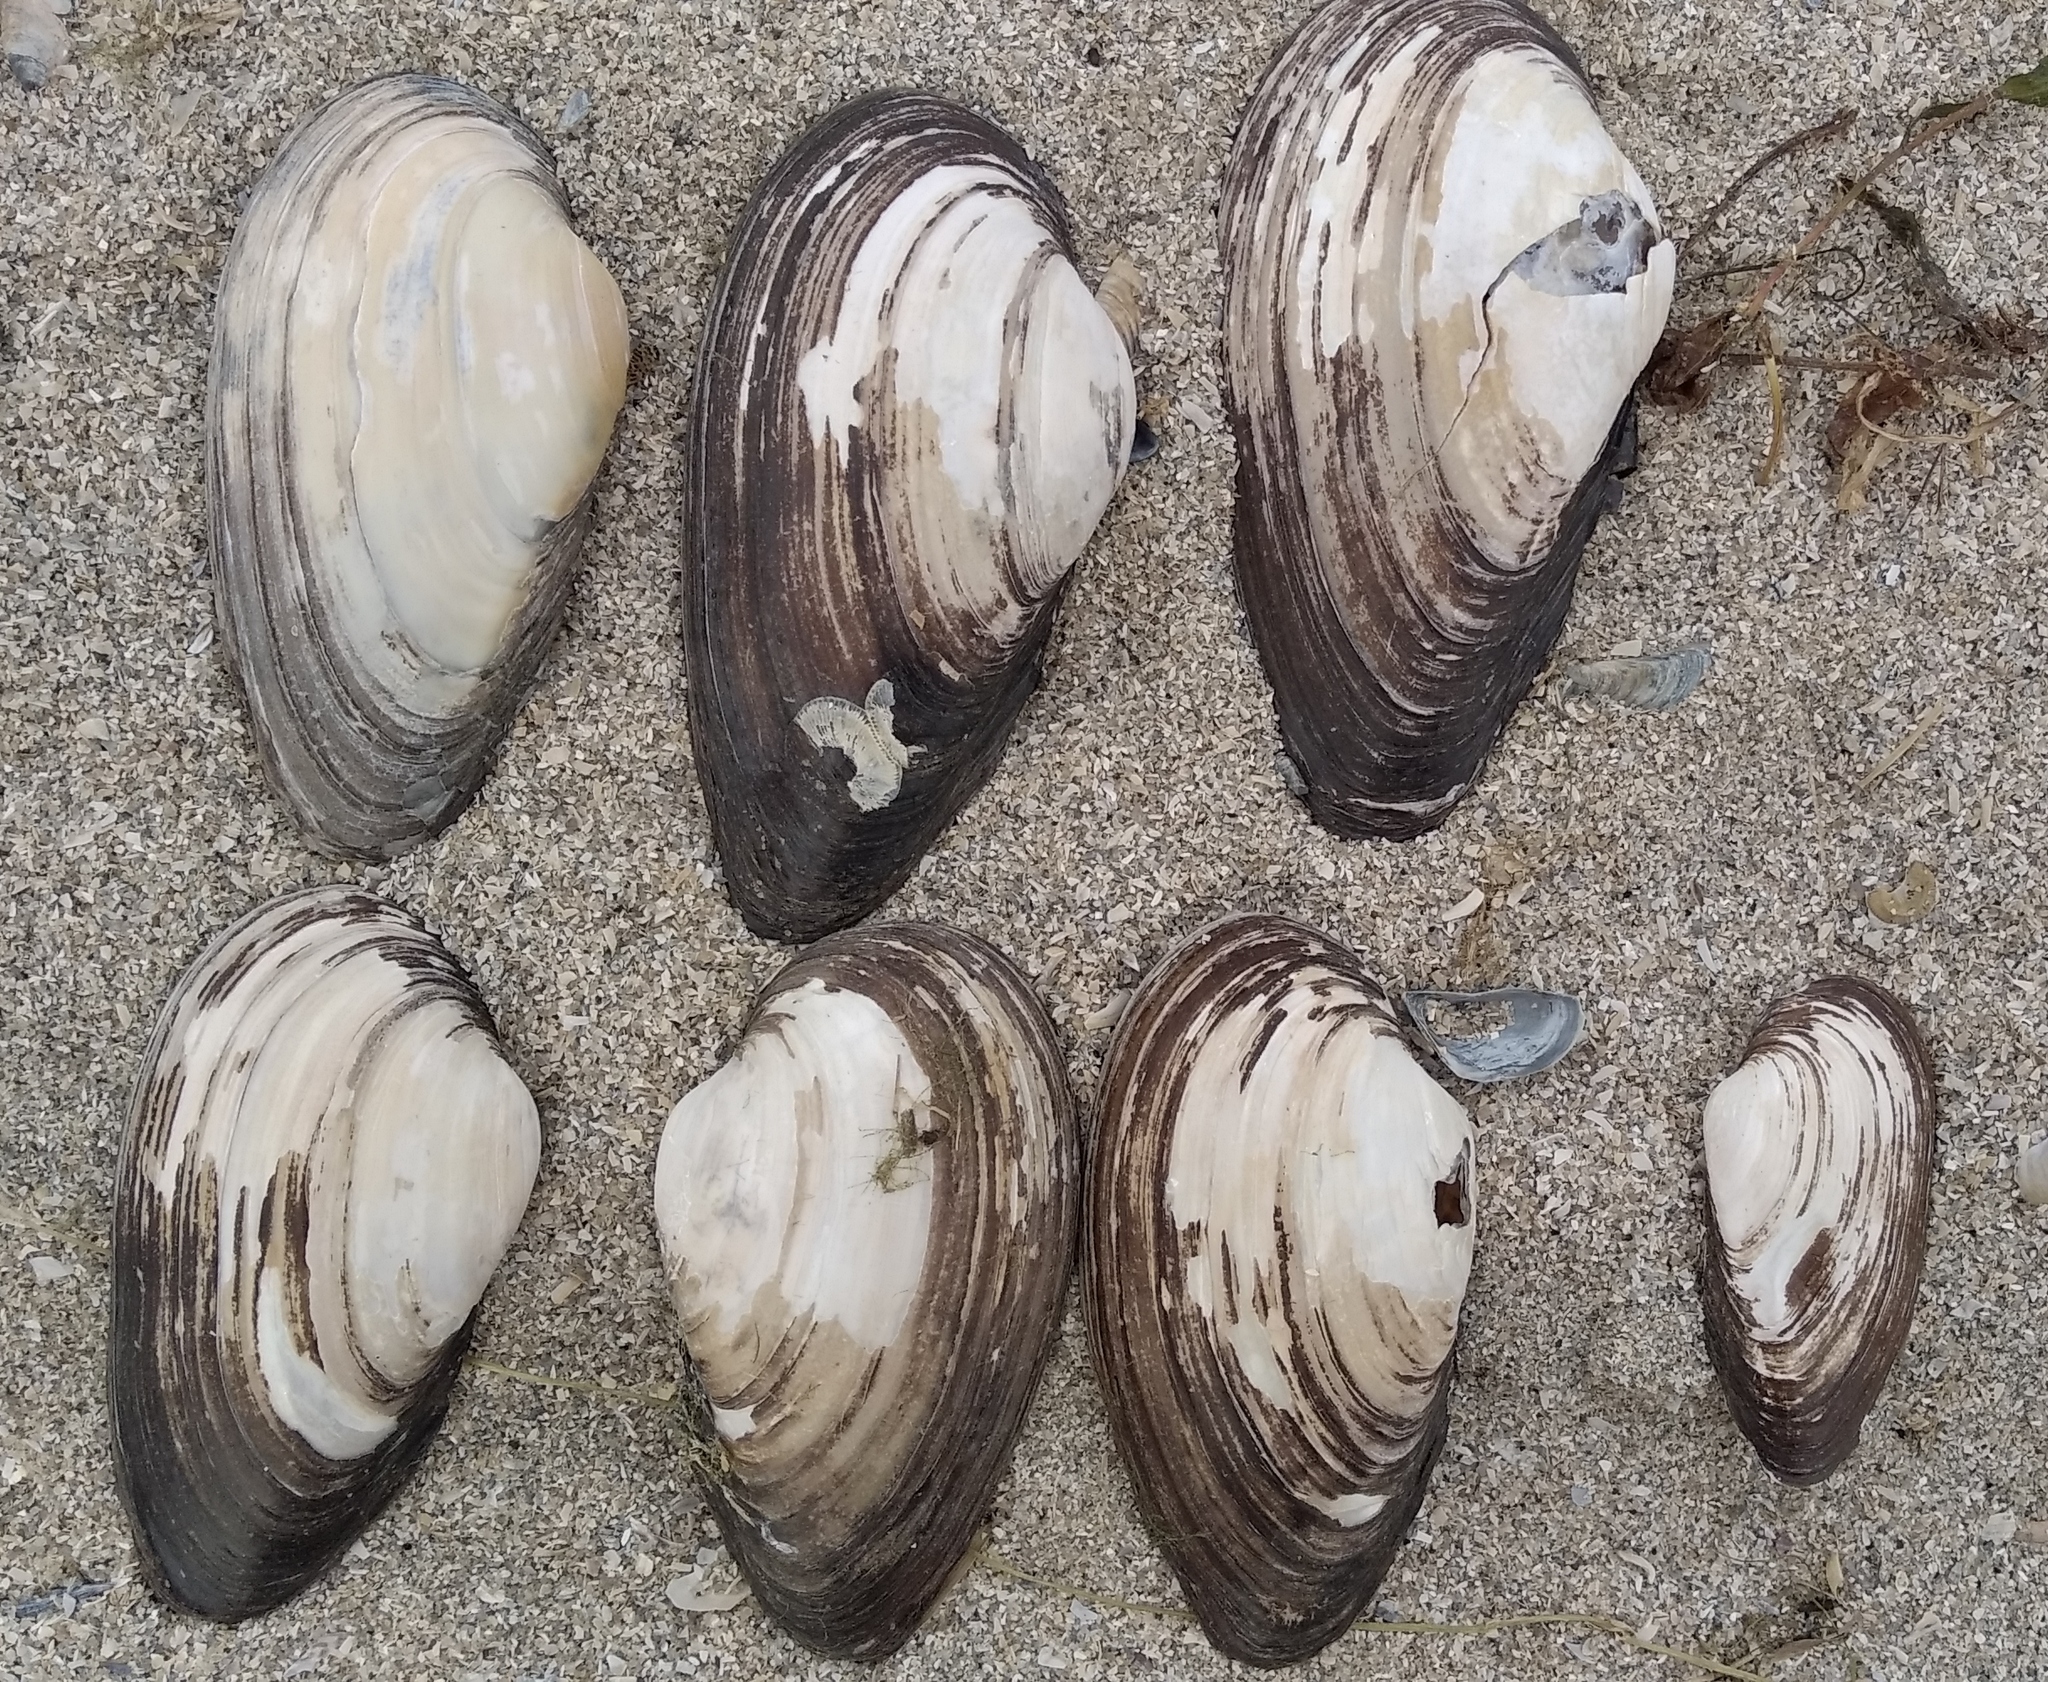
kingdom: Animalia
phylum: Mollusca
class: Bivalvia
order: Unionida
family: Unionidae
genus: Unio
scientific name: Unio tumidus
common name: Swollen river mussel
